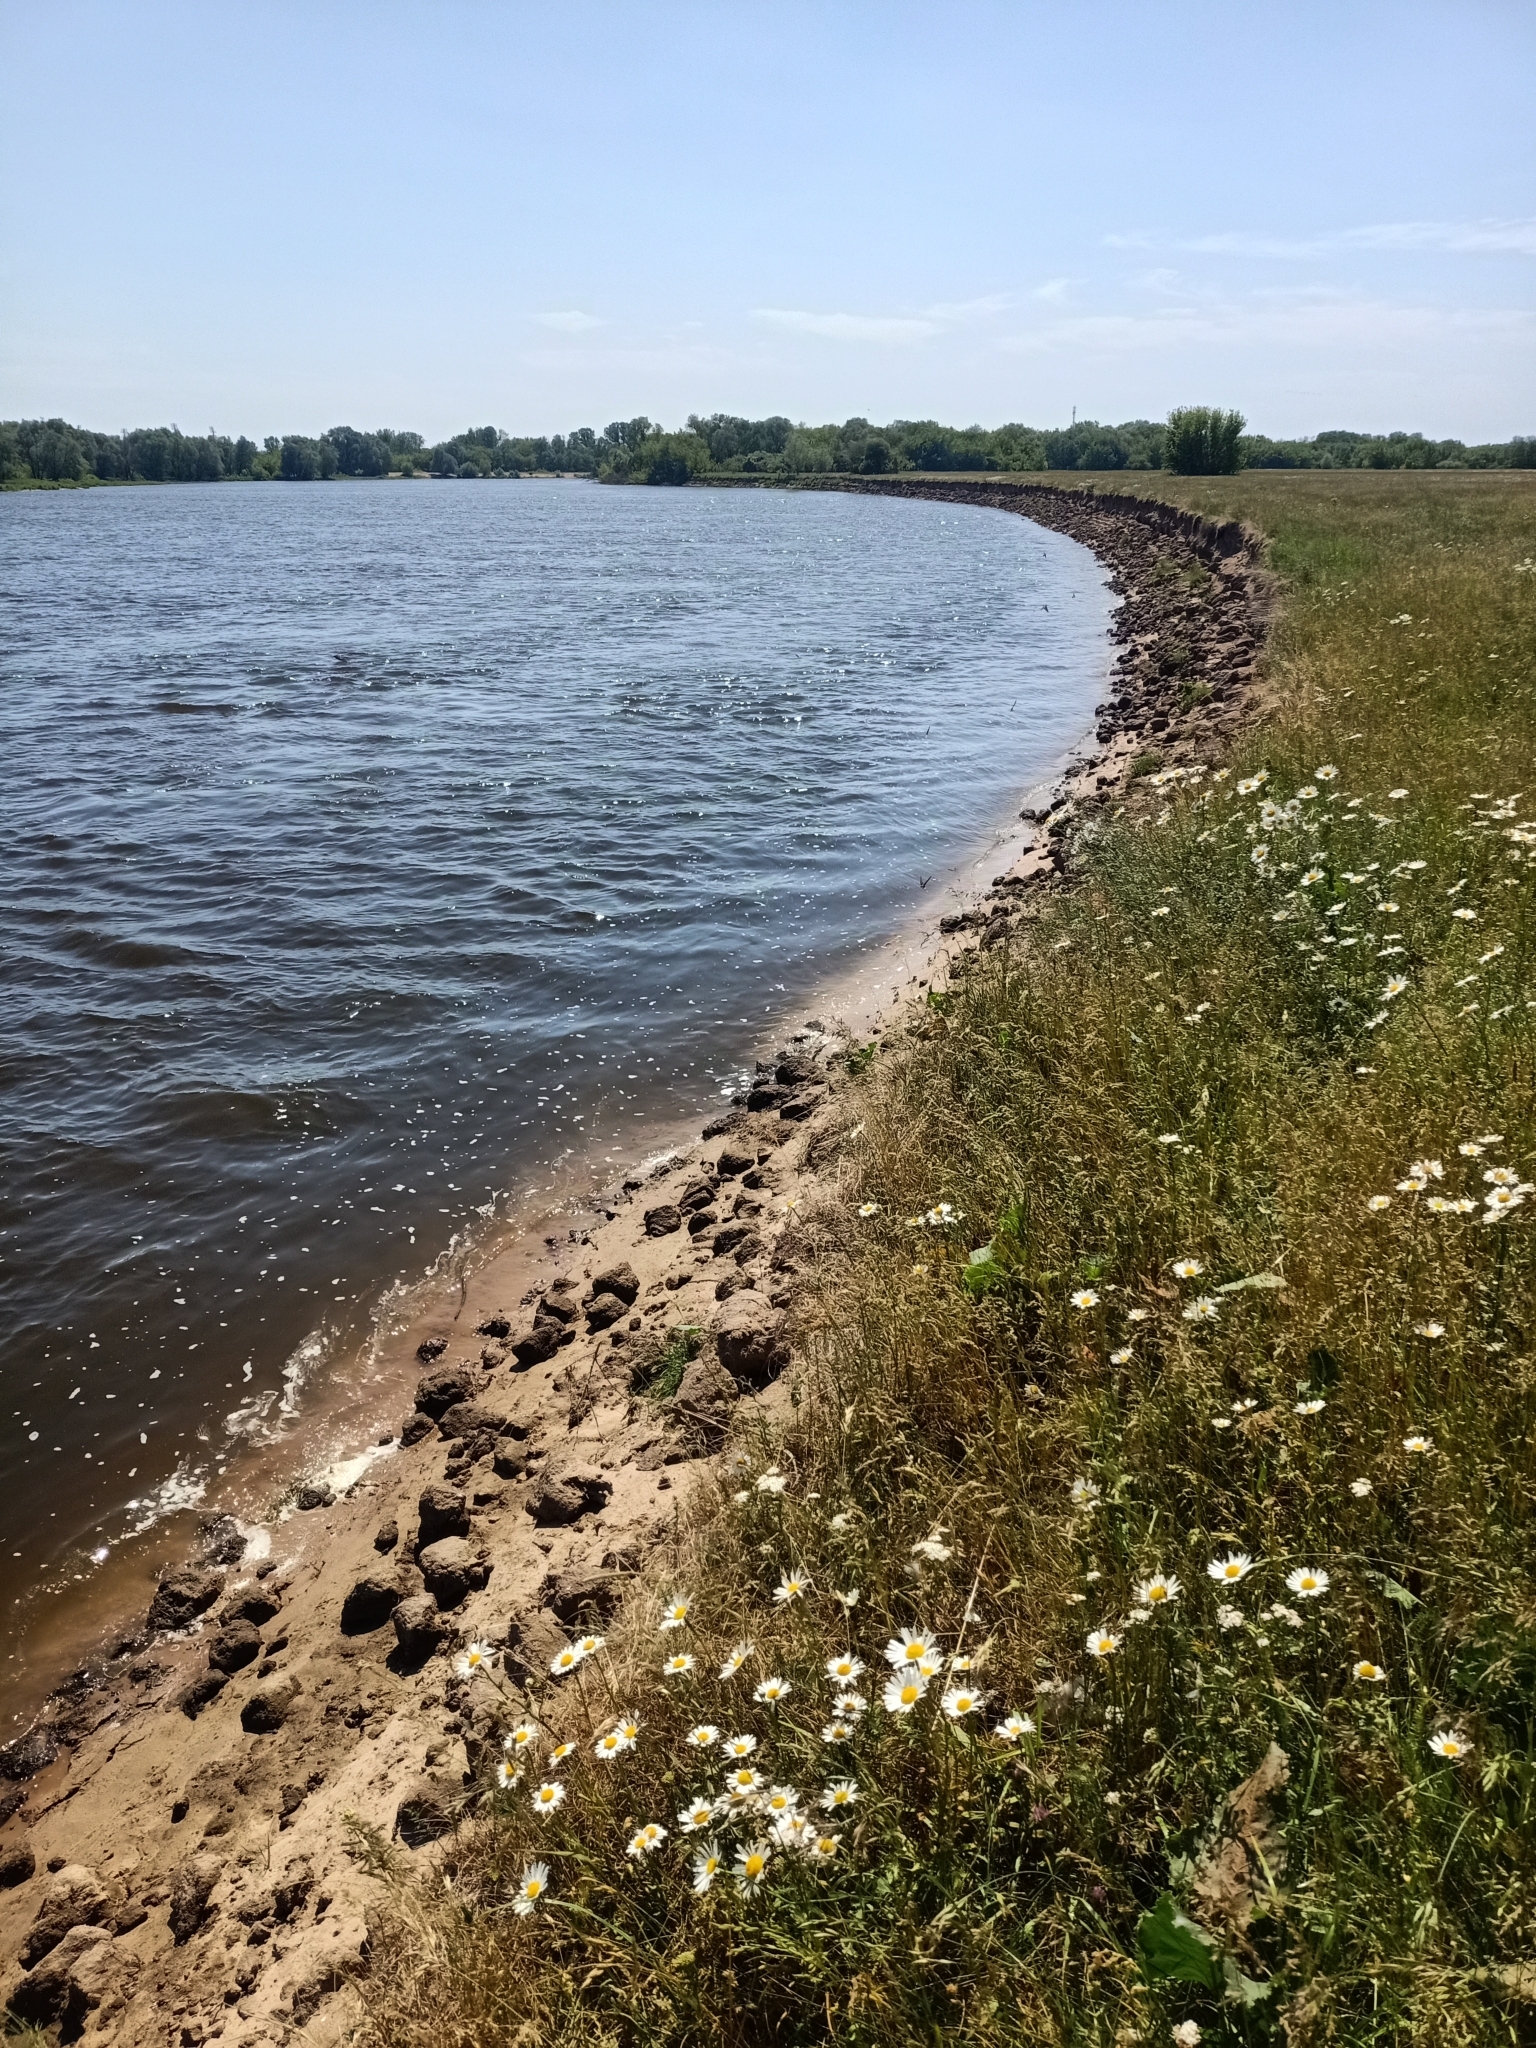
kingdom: Animalia
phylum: Chordata
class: Aves
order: Passeriformes
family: Hirundinidae
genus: Riparia
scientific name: Riparia riparia
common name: Sand martin
